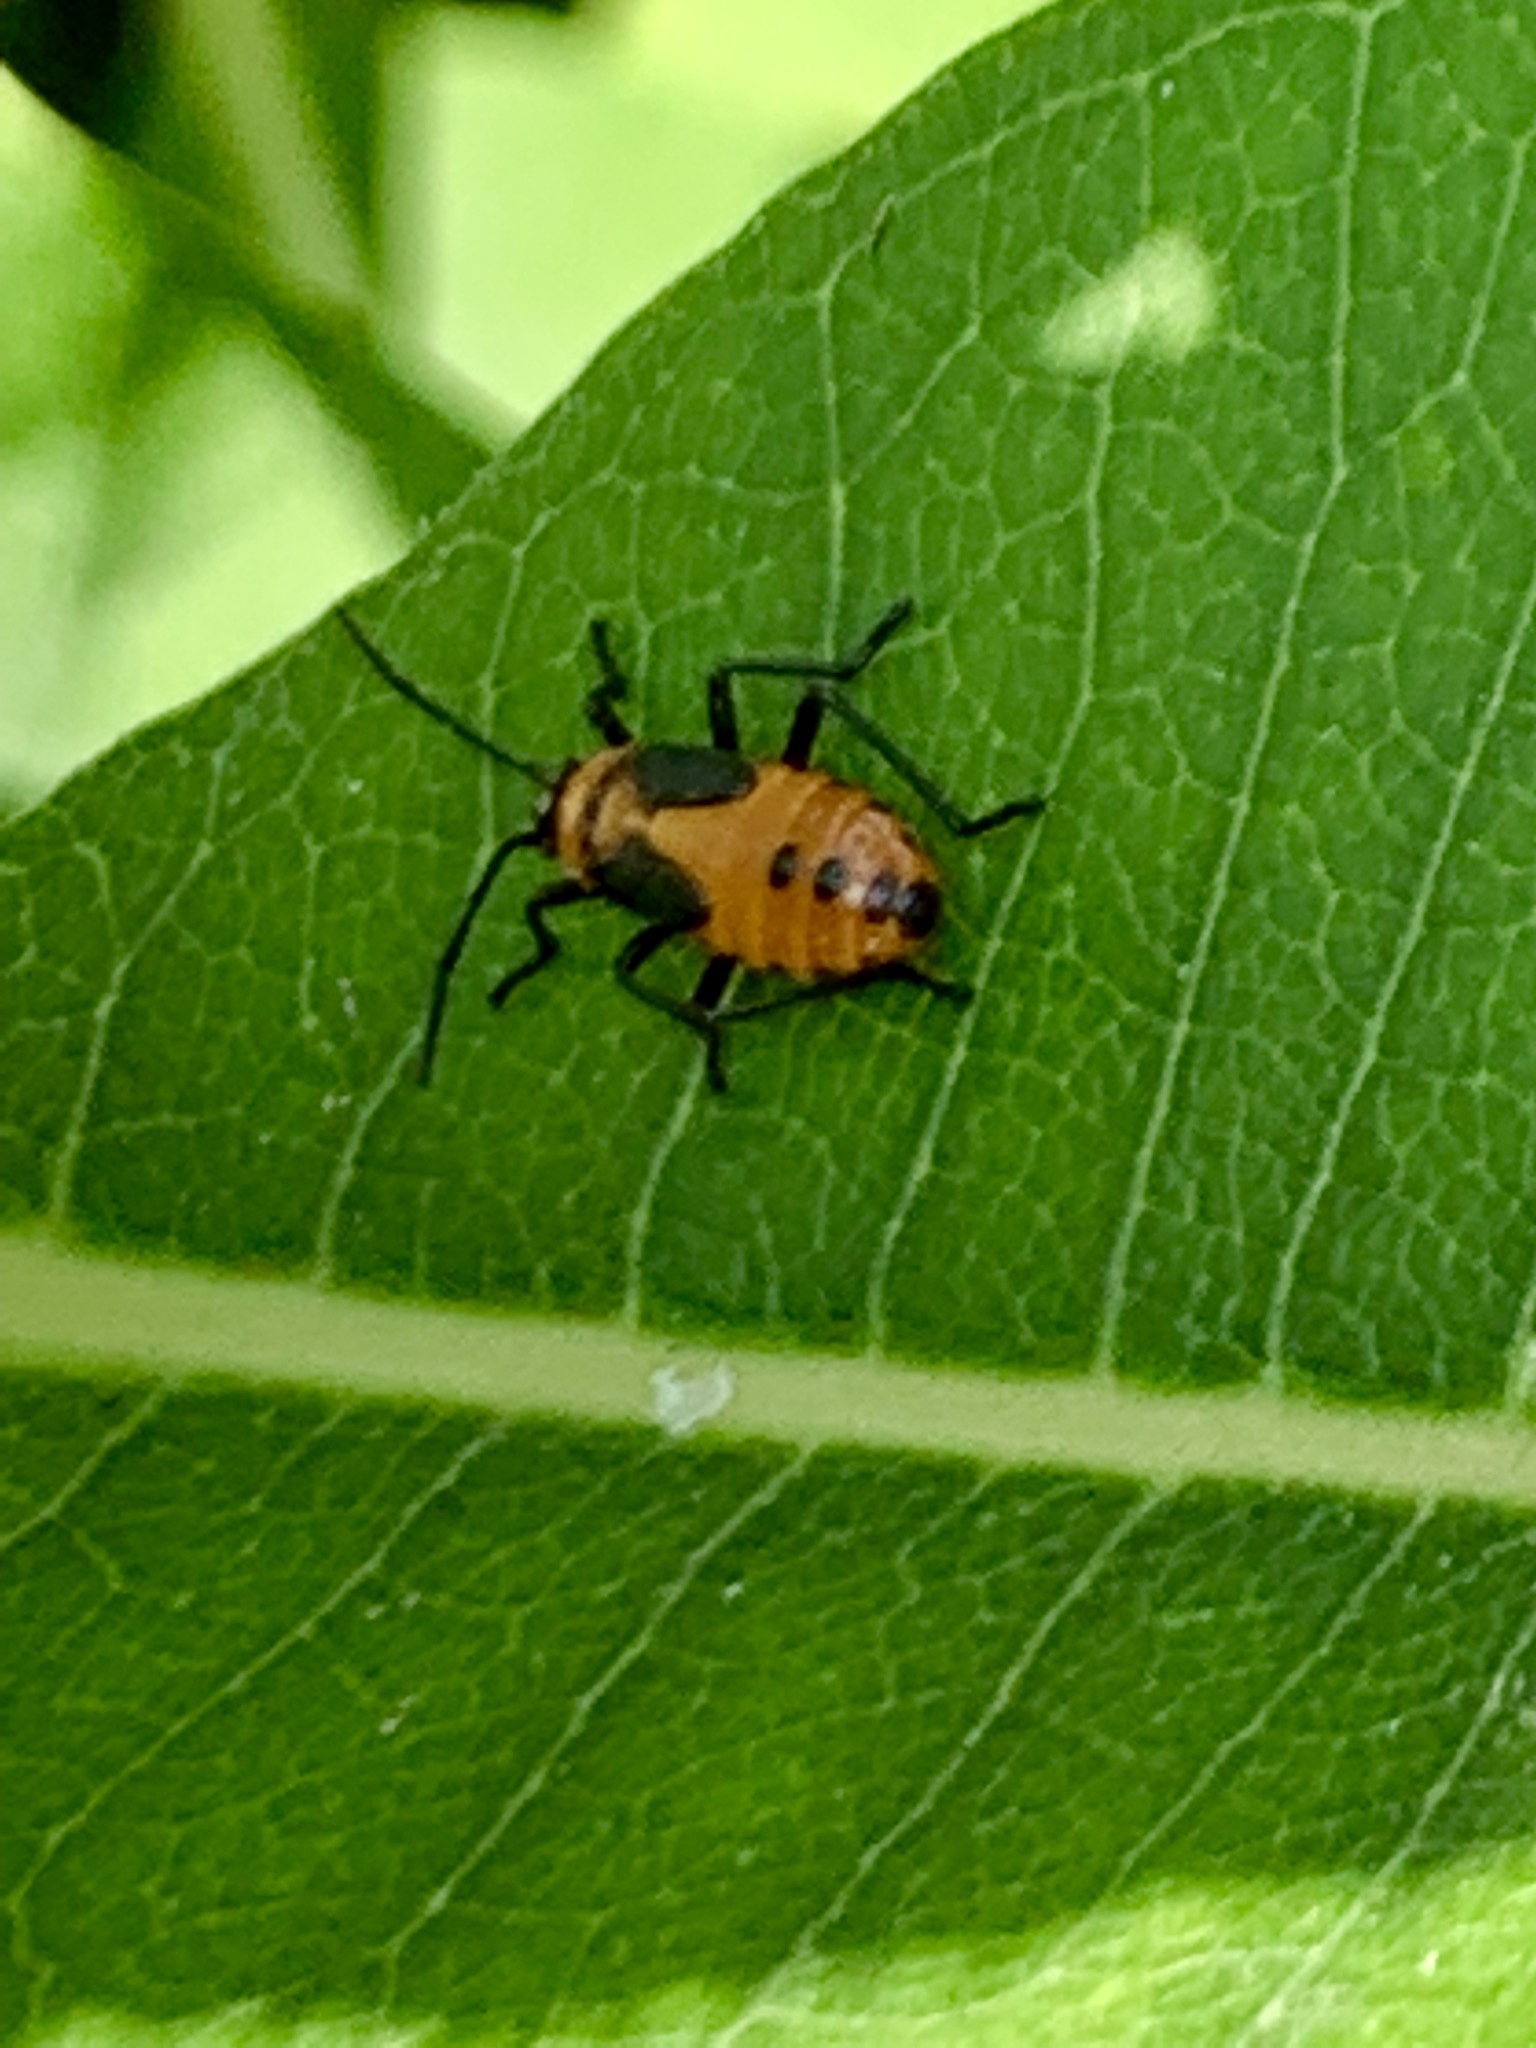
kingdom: Animalia
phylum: Arthropoda
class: Insecta
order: Hemiptera
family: Lygaeidae
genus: Oncopeltus
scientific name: Oncopeltus fasciatus
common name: Large milkweed bug
